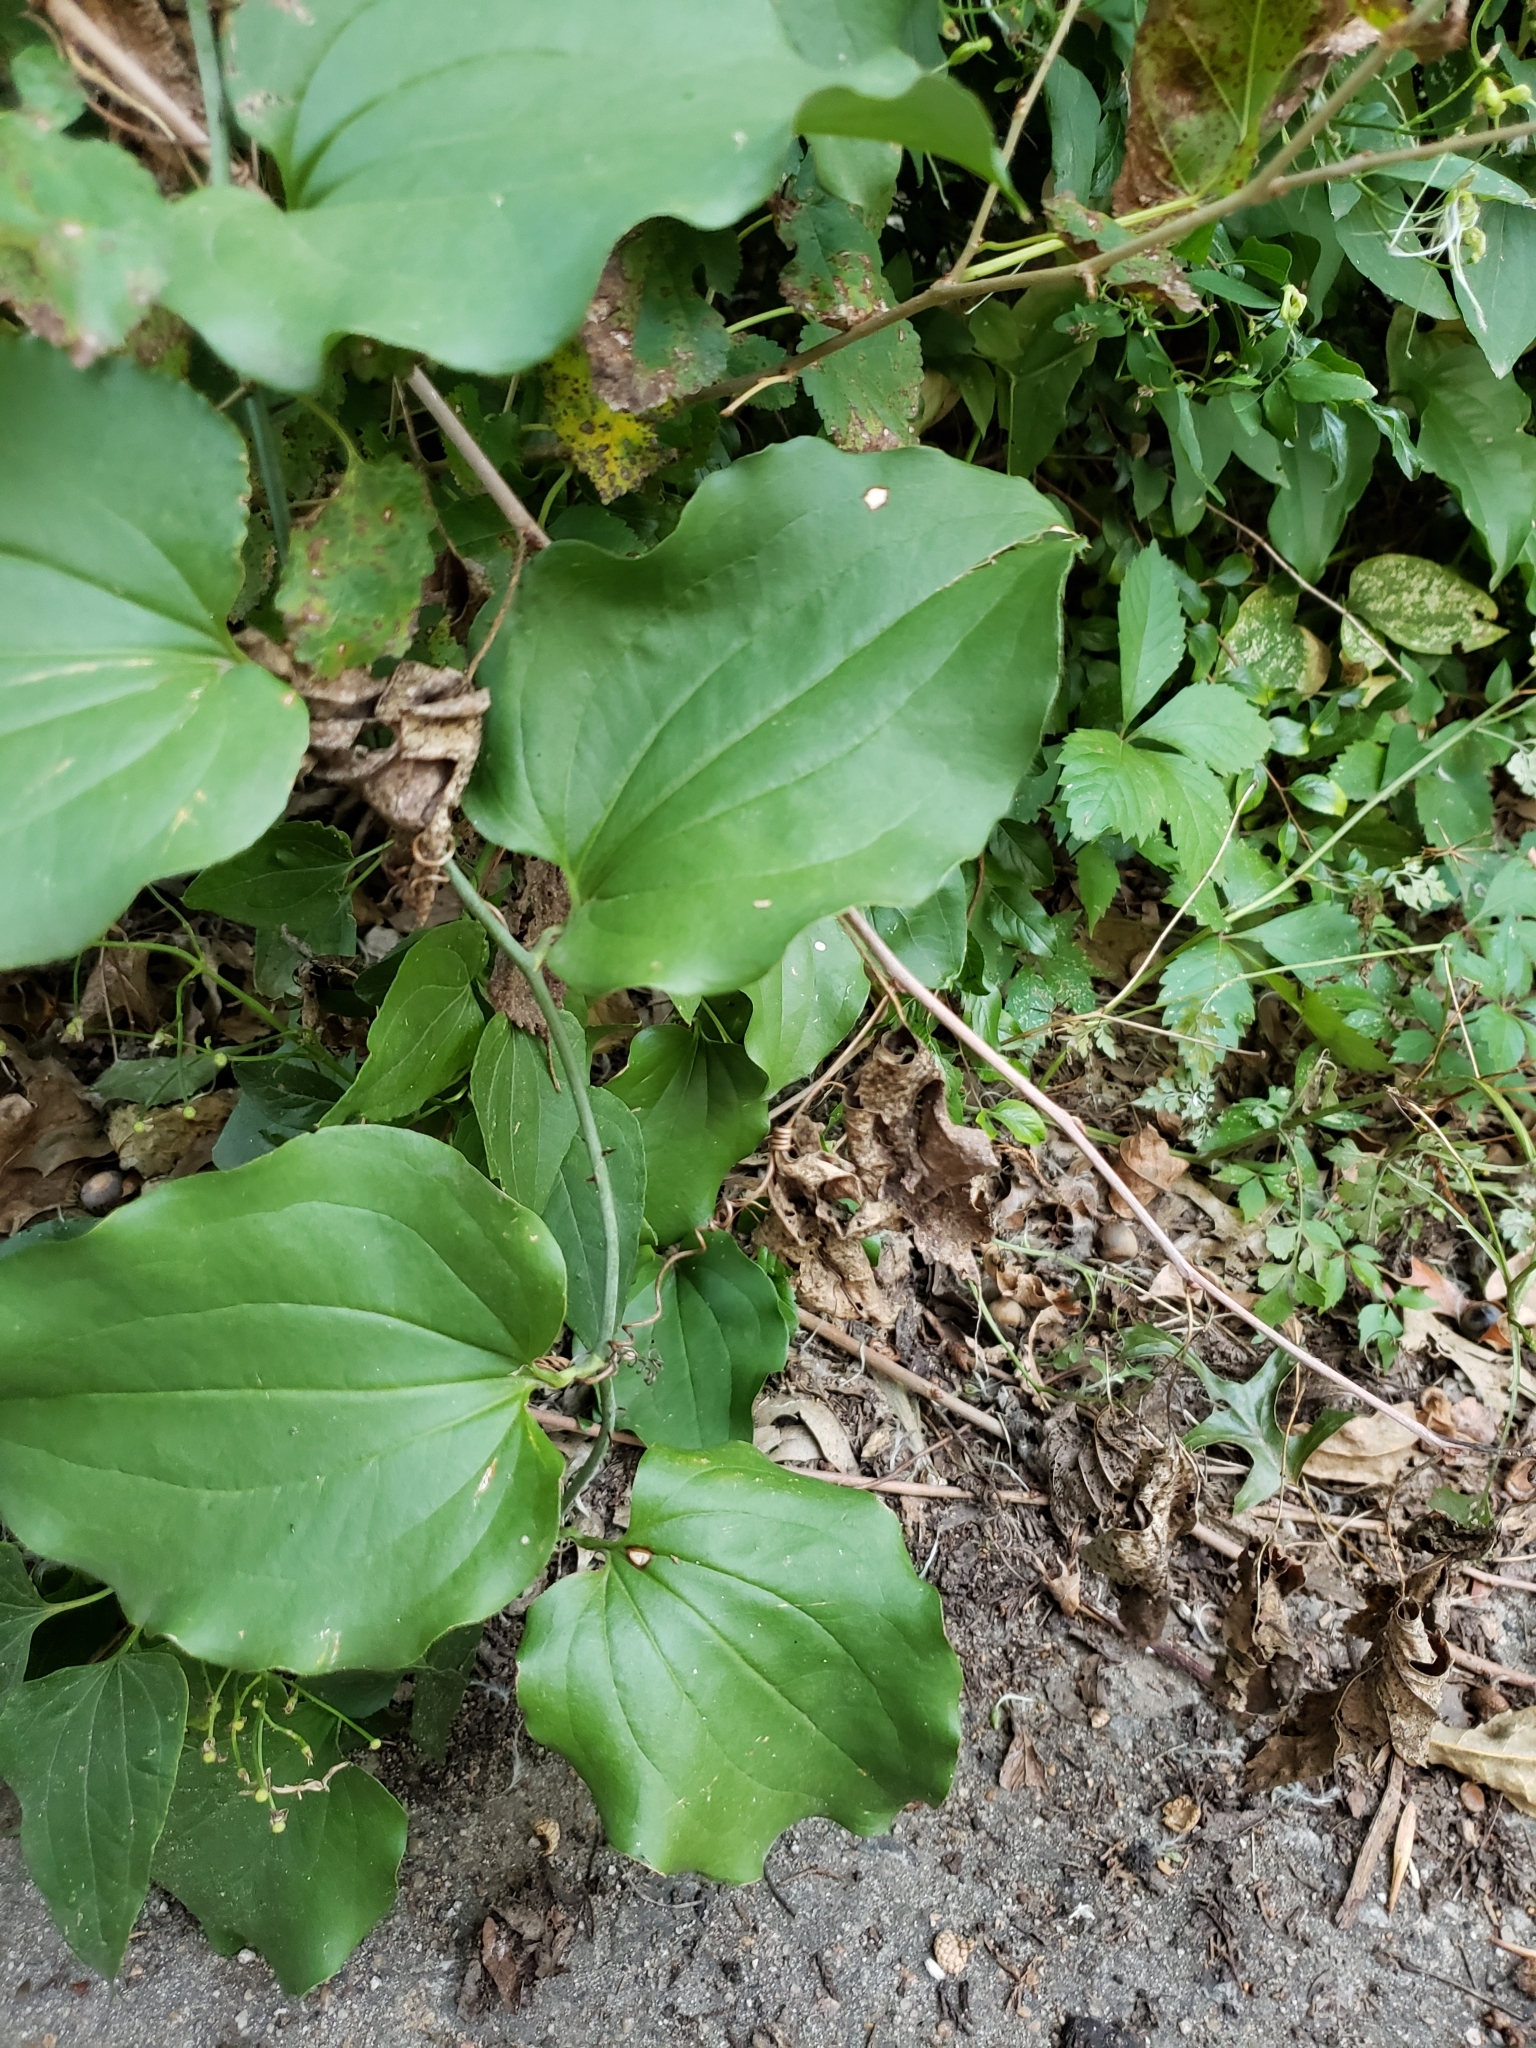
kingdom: Plantae
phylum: Tracheophyta
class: Liliopsida
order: Liliales
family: Smilacaceae
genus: Smilax
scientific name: Smilax tamnoides
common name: Hellfetter
